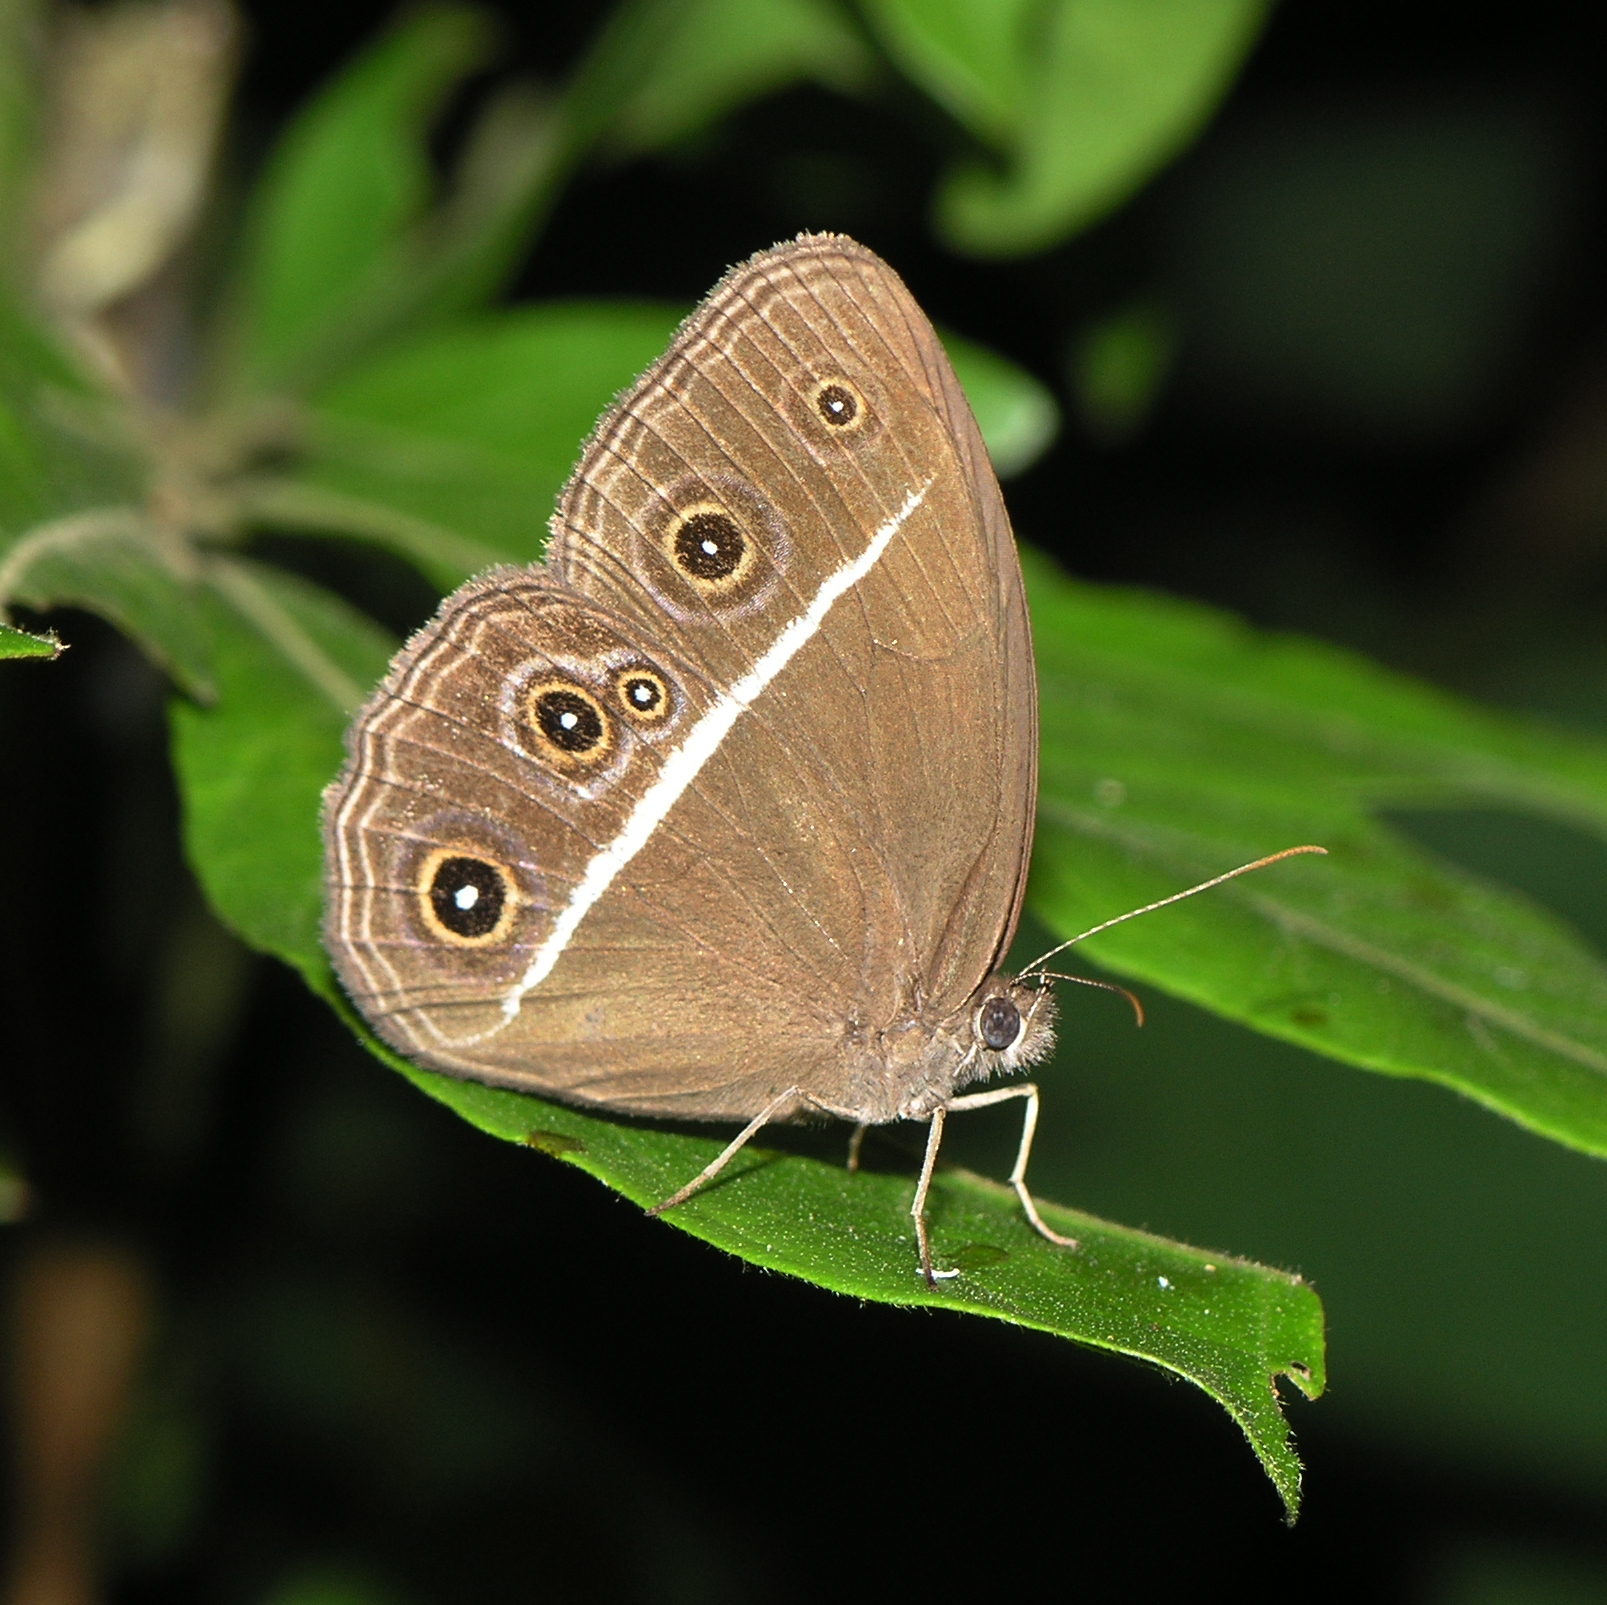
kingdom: Animalia
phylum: Arthropoda
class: Insecta
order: Lepidoptera
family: Nymphalidae
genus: Orsotriaena
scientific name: Orsotriaena medus
